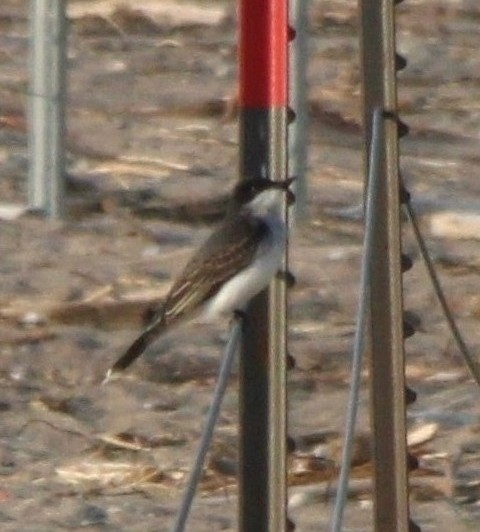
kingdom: Animalia
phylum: Chordata
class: Aves
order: Passeriformes
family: Tyrannidae
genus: Tyrannus
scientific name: Tyrannus tyrannus
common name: Eastern kingbird
